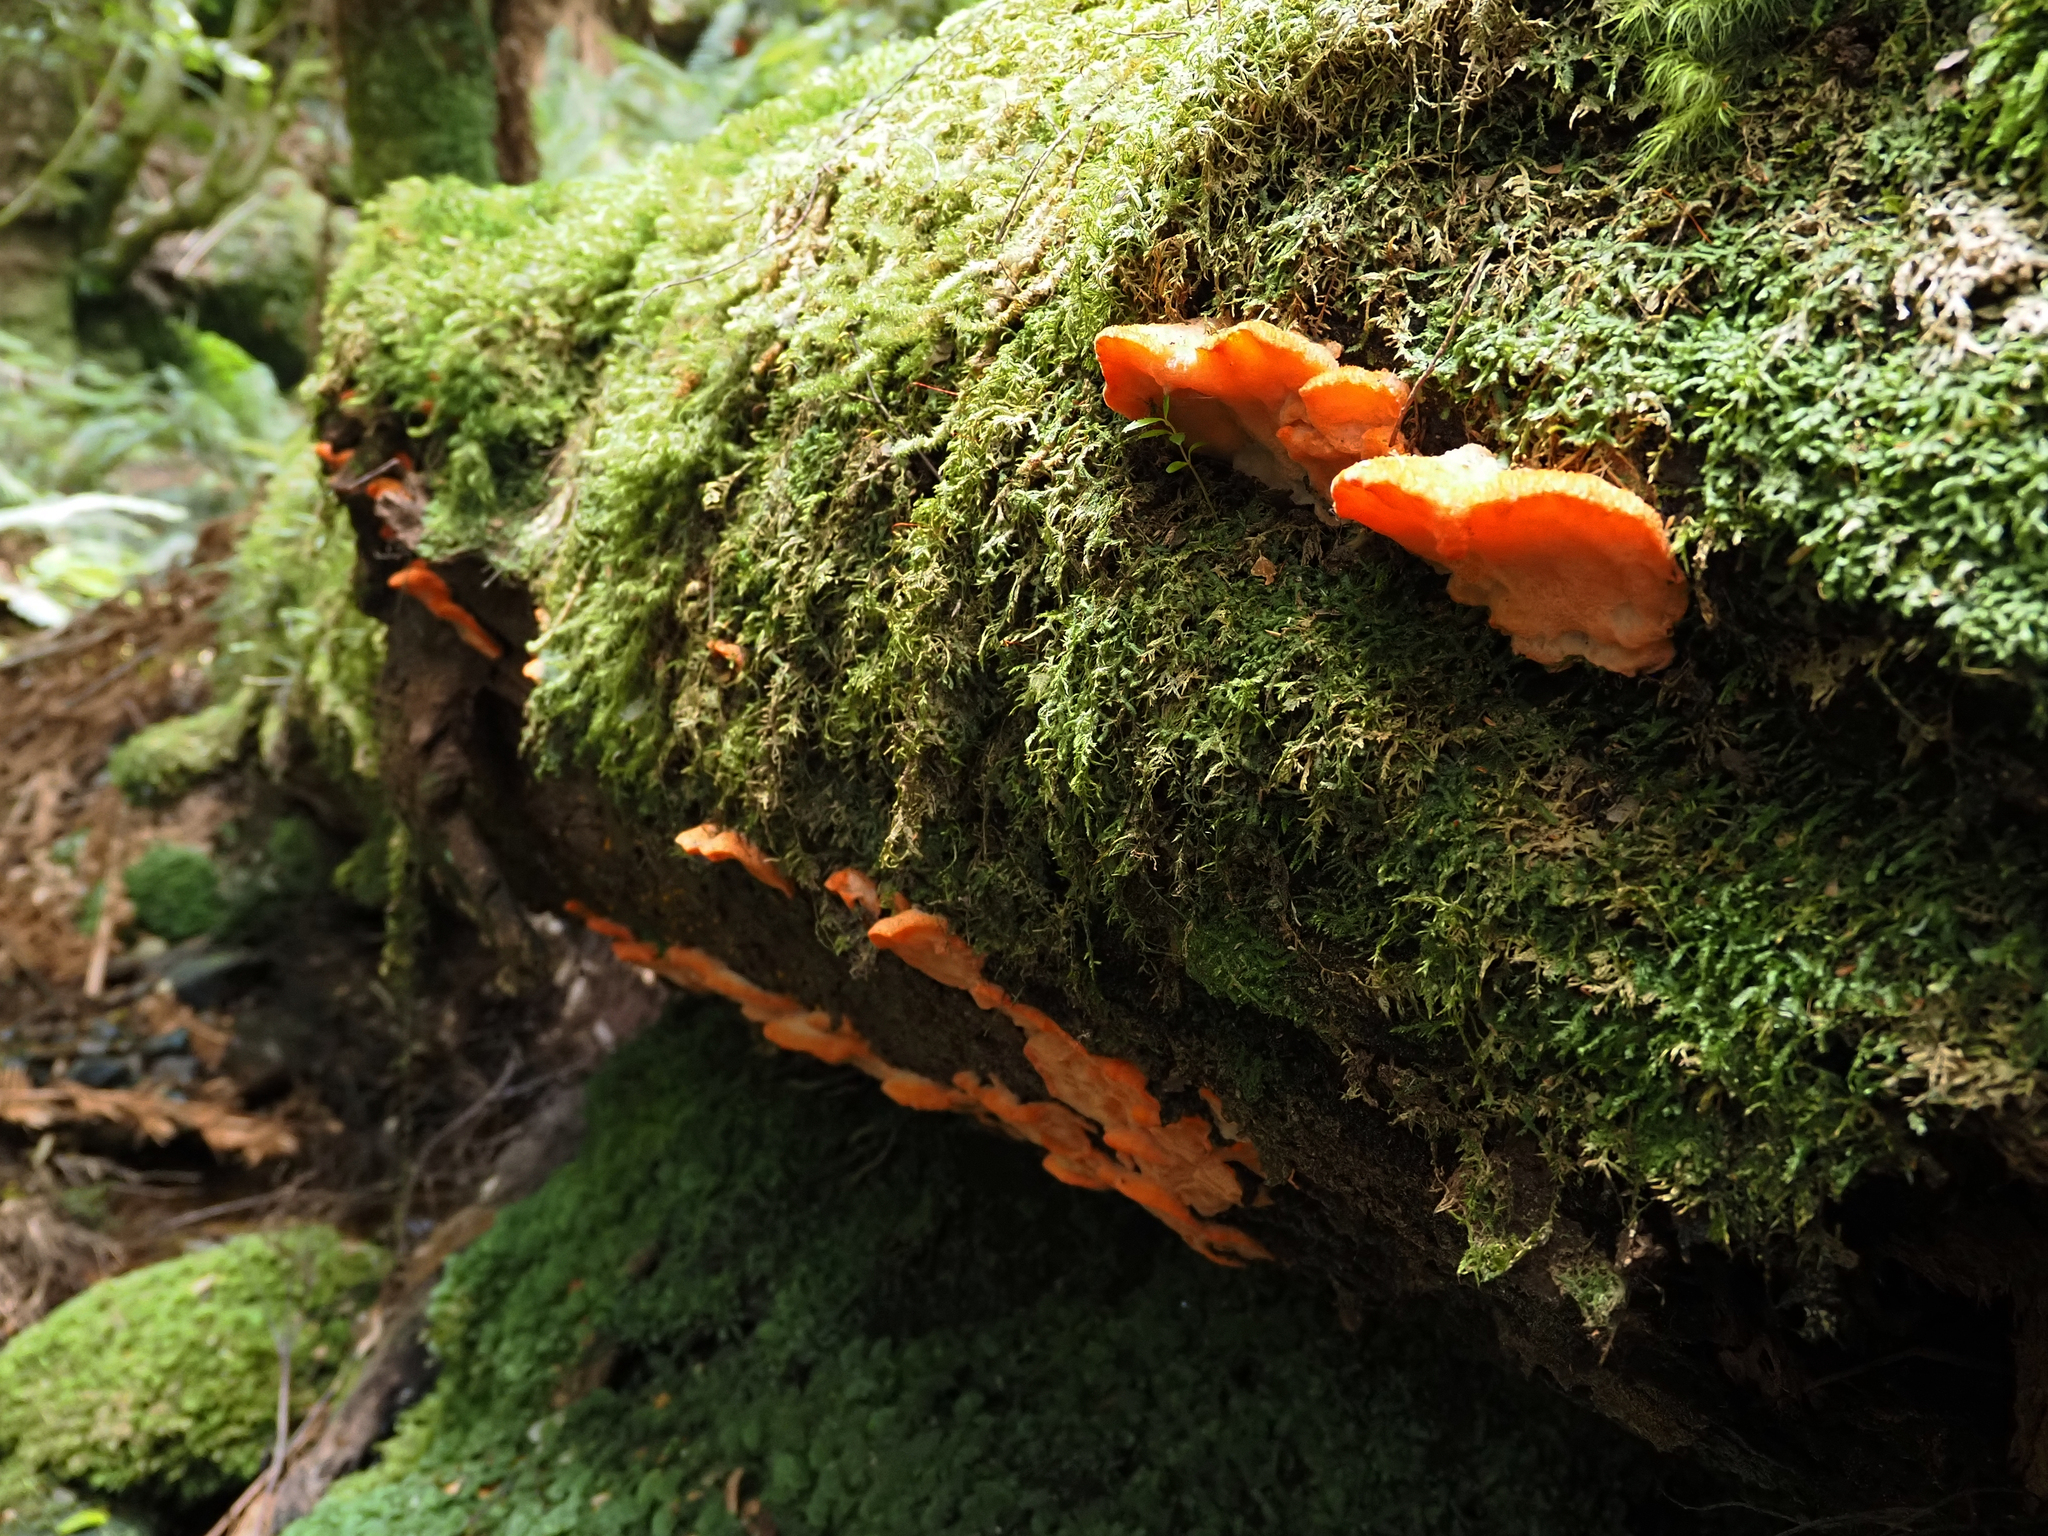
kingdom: Fungi
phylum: Basidiomycota
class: Agaricomycetes
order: Polyporales
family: Incrustoporiaceae
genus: Tyromyces
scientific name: Tyromyces pulcherrimus
